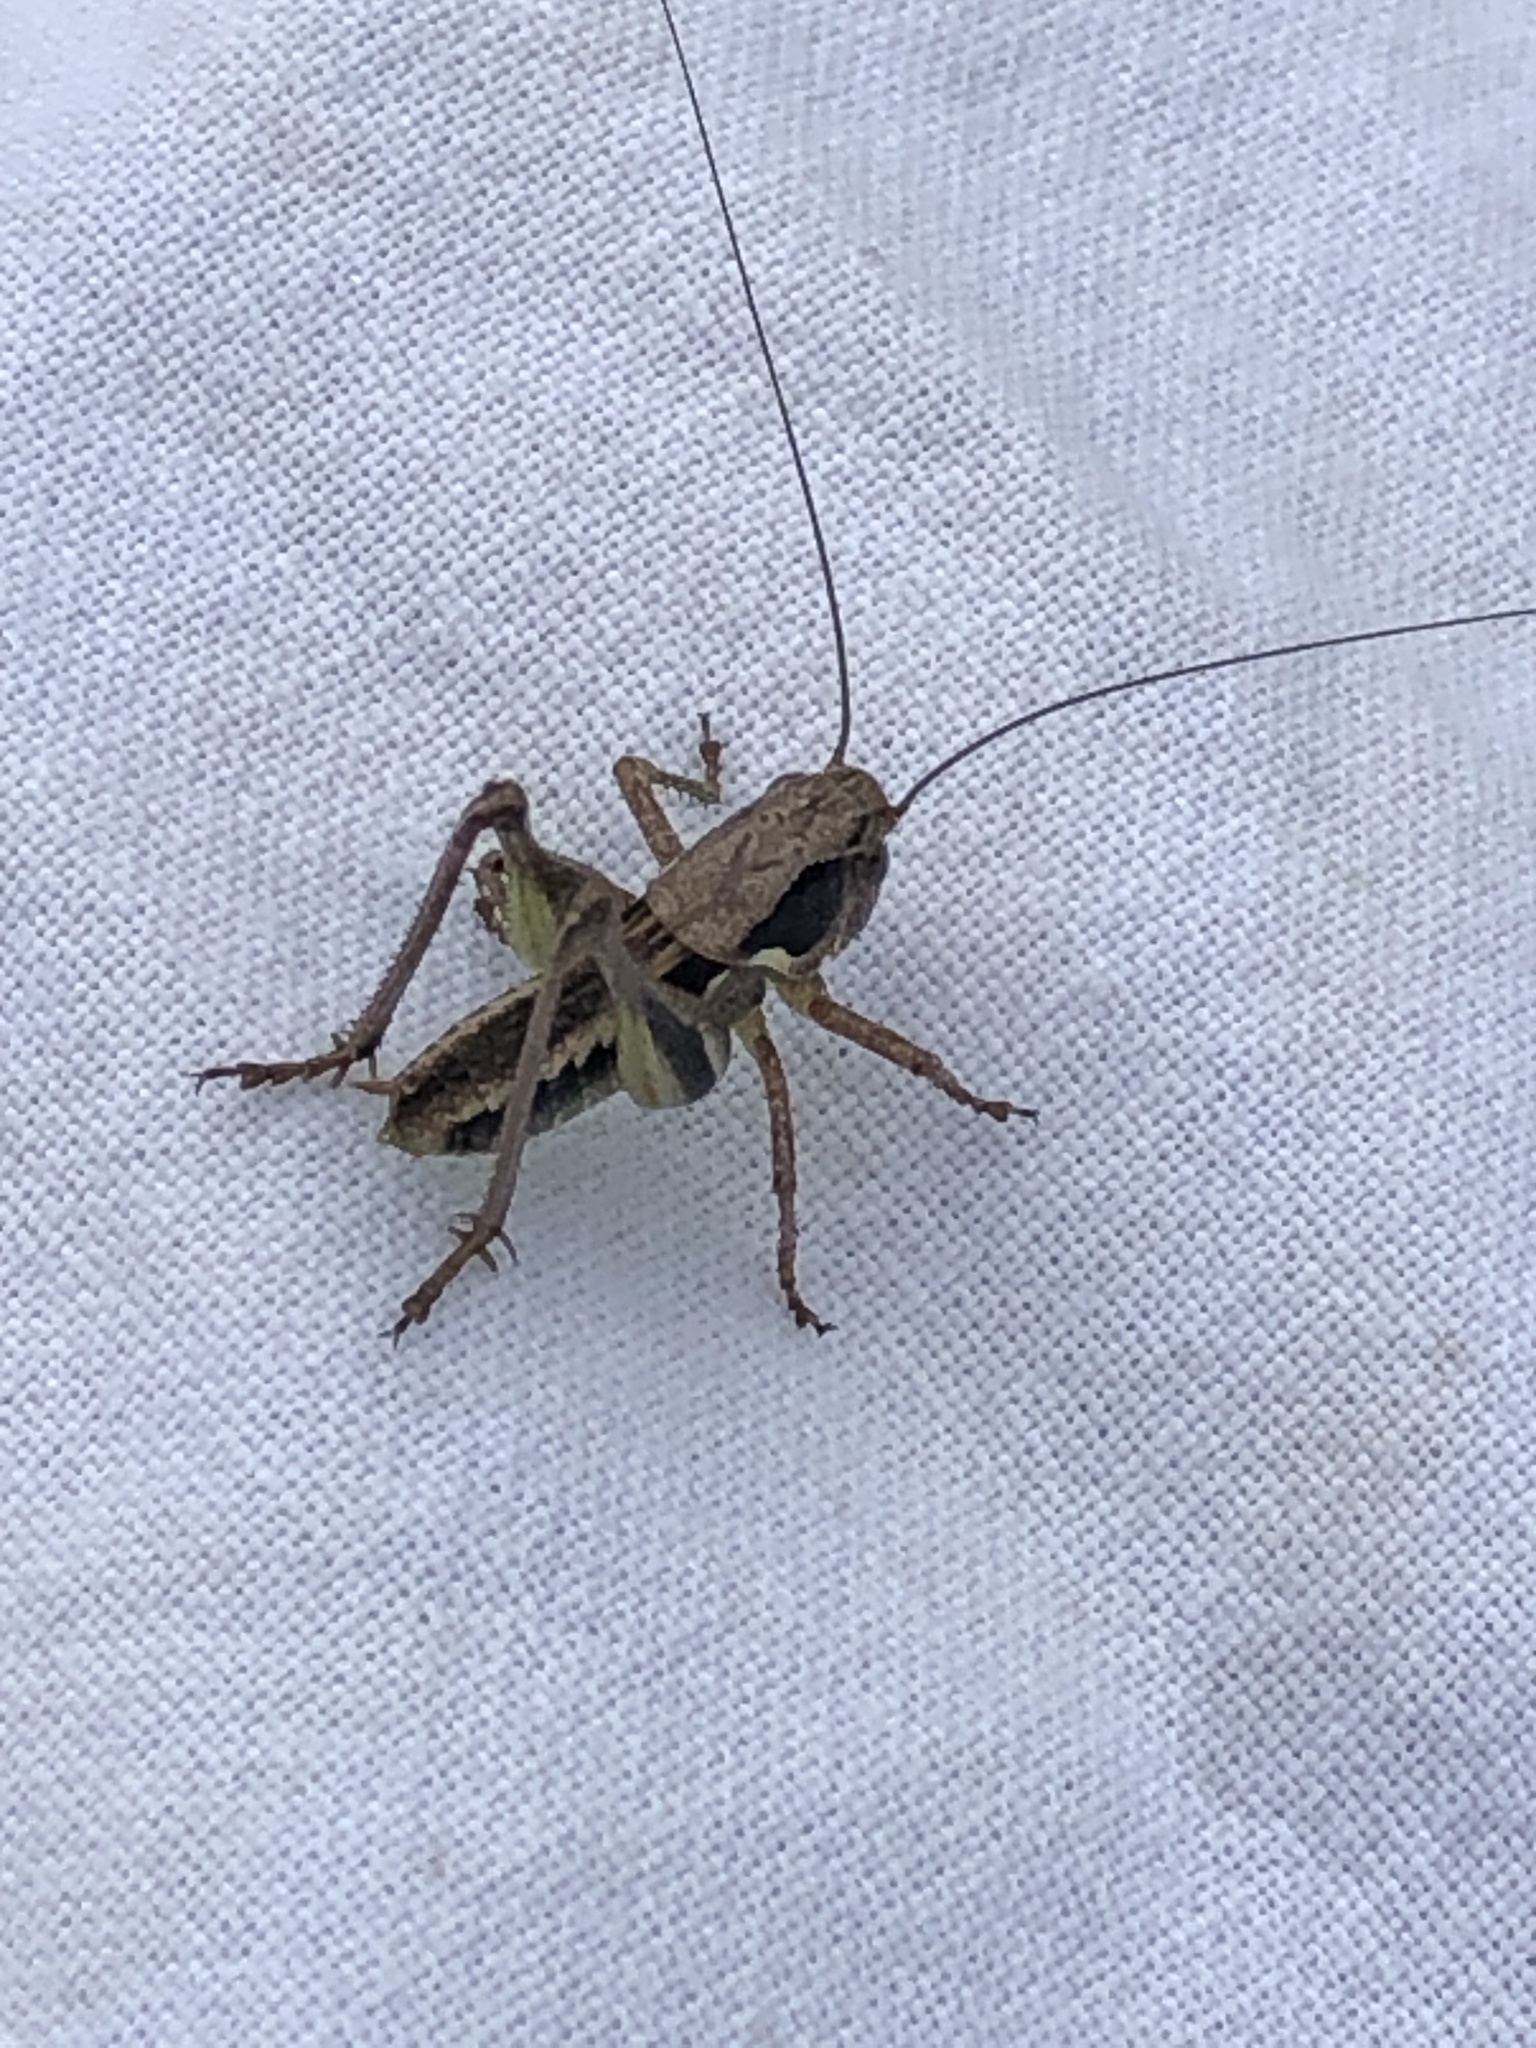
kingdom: Animalia
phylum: Arthropoda
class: Insecta
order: Orthoptera
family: Tettigoniidae
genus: Platycleis
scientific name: Platycleis grisea
